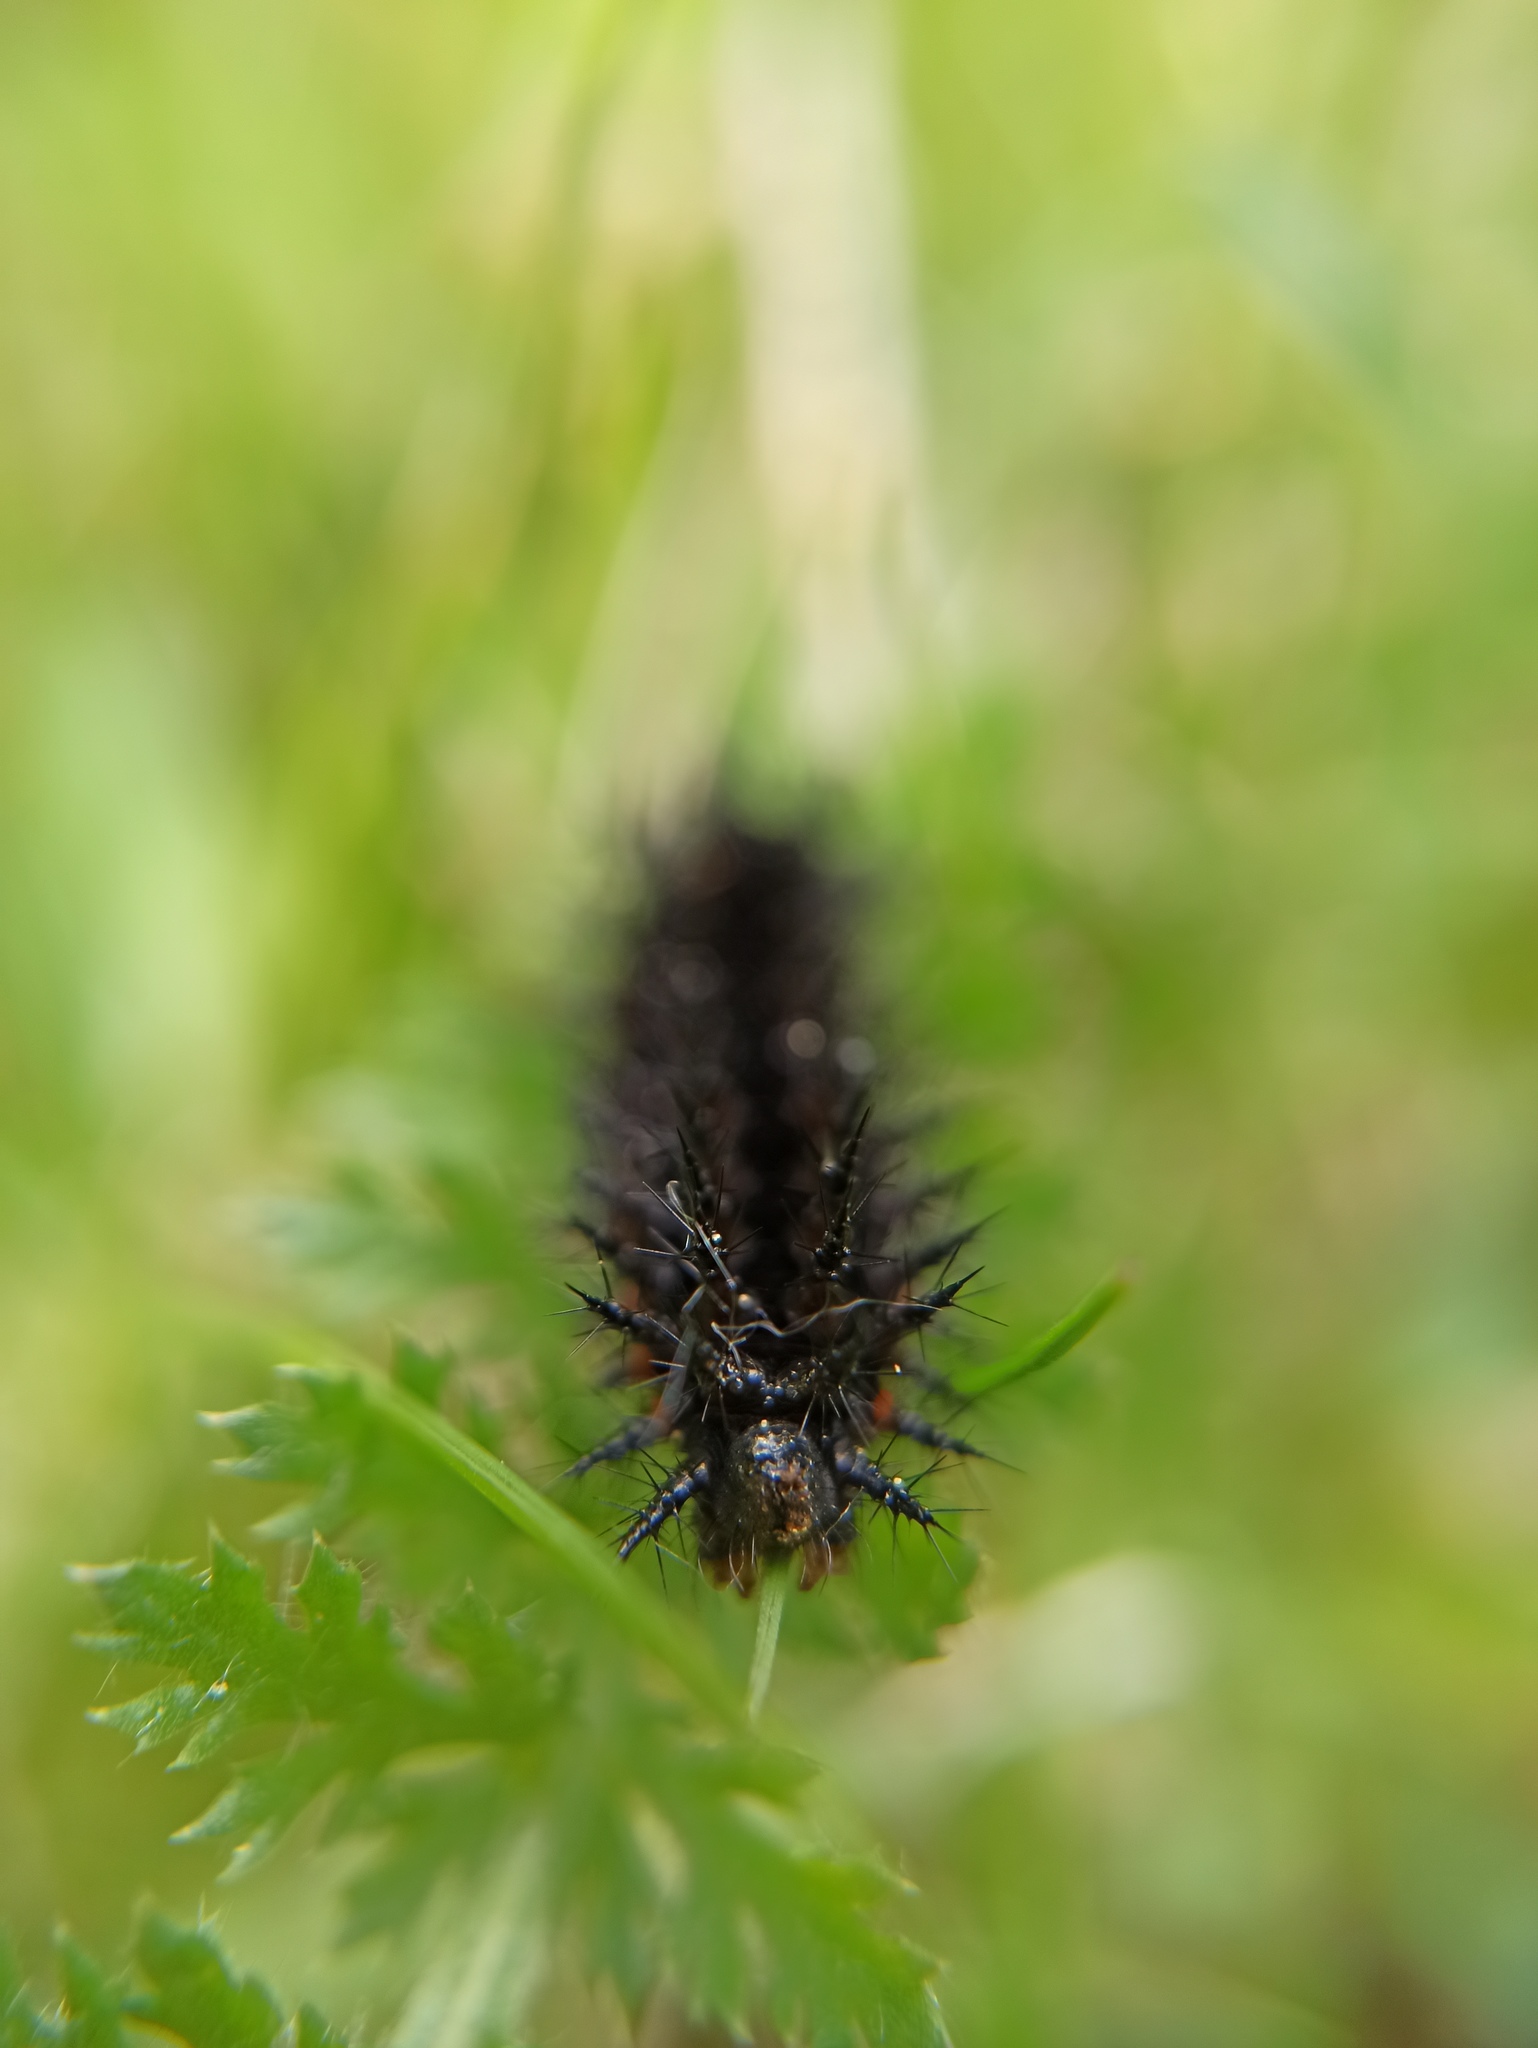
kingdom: Animalia
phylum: Arthropoda
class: Insecta
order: Lepidoptera
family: Nymphalidae
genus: Speyeria
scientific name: Speyeria aglaja
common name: Dark green fritillary
